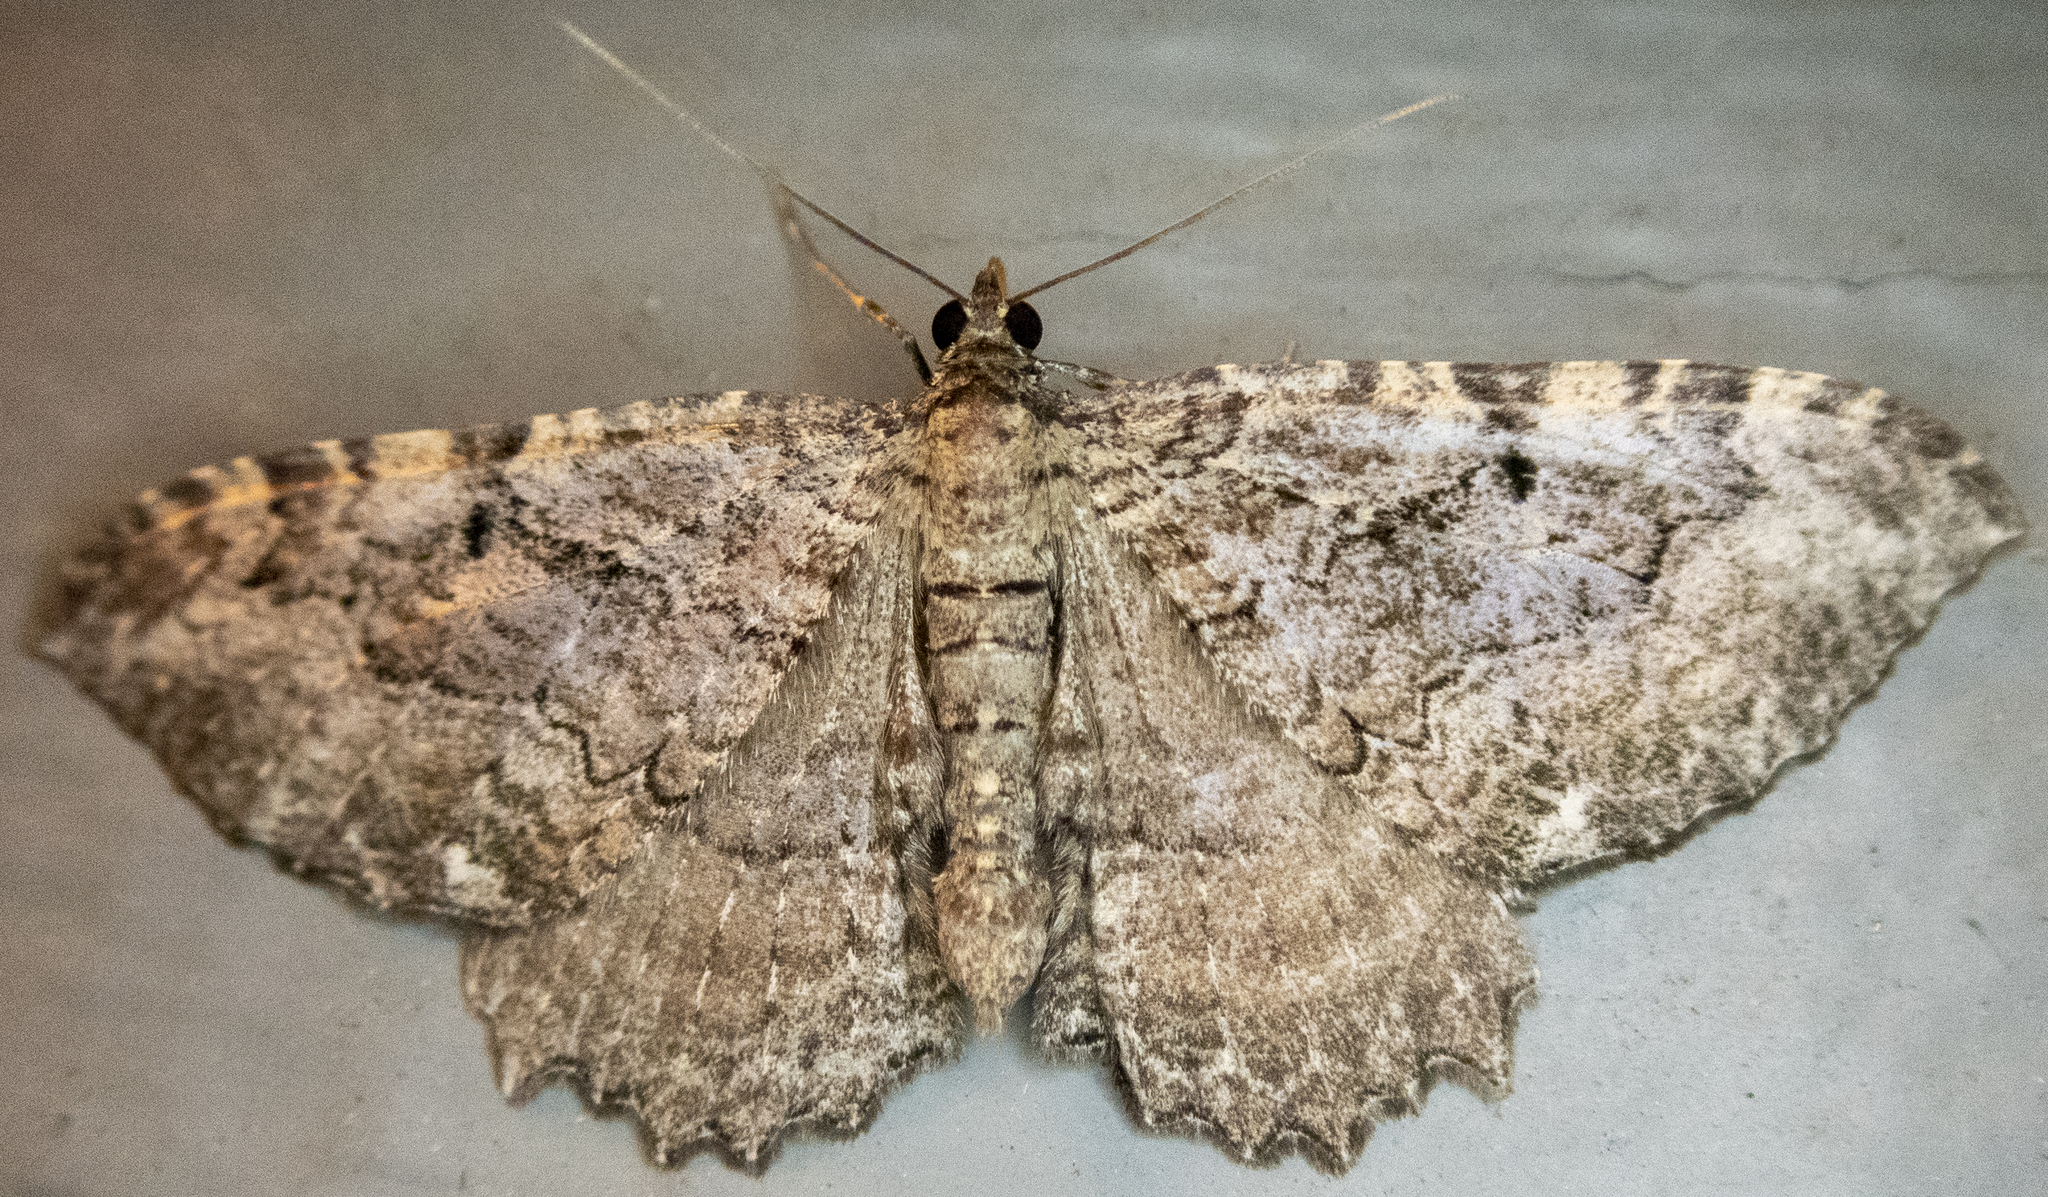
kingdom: Animalia
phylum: Arthropoda
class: Insecta
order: Lepidoptera
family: Geometridae
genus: Rheumaptera
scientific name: Rheumaptera
